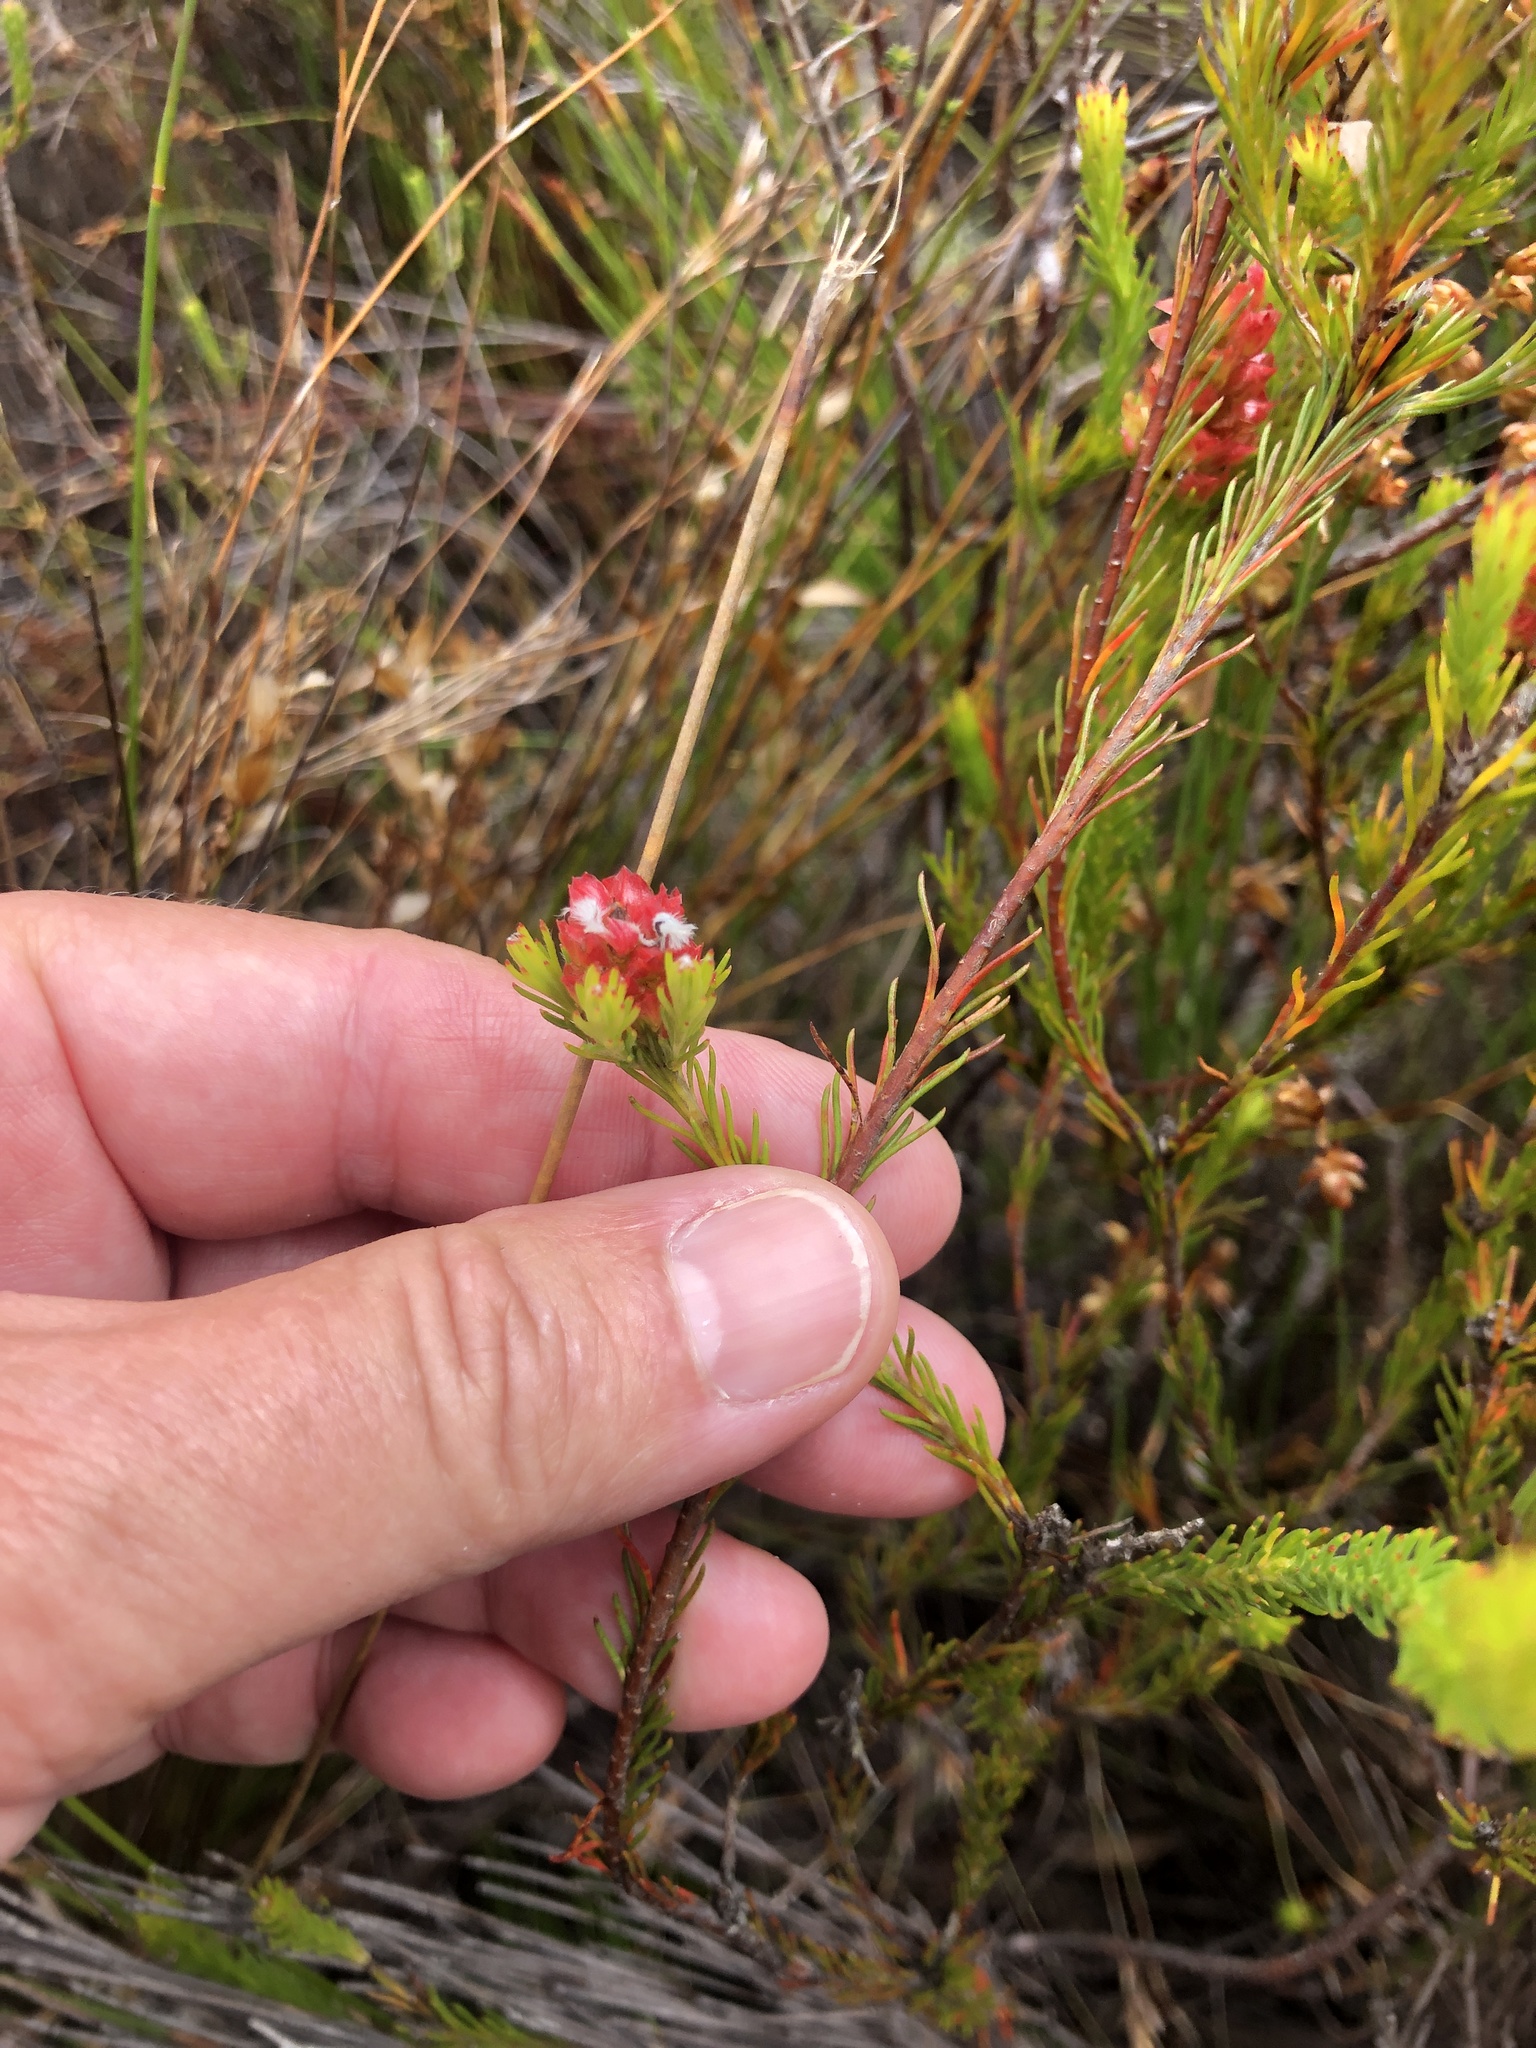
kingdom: Plantae
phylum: Tracheophyta
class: Magnoliopsida
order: Proteales
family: Proteaceae
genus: Spatalla
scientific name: Spatalla squamata
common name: Silky spoon
